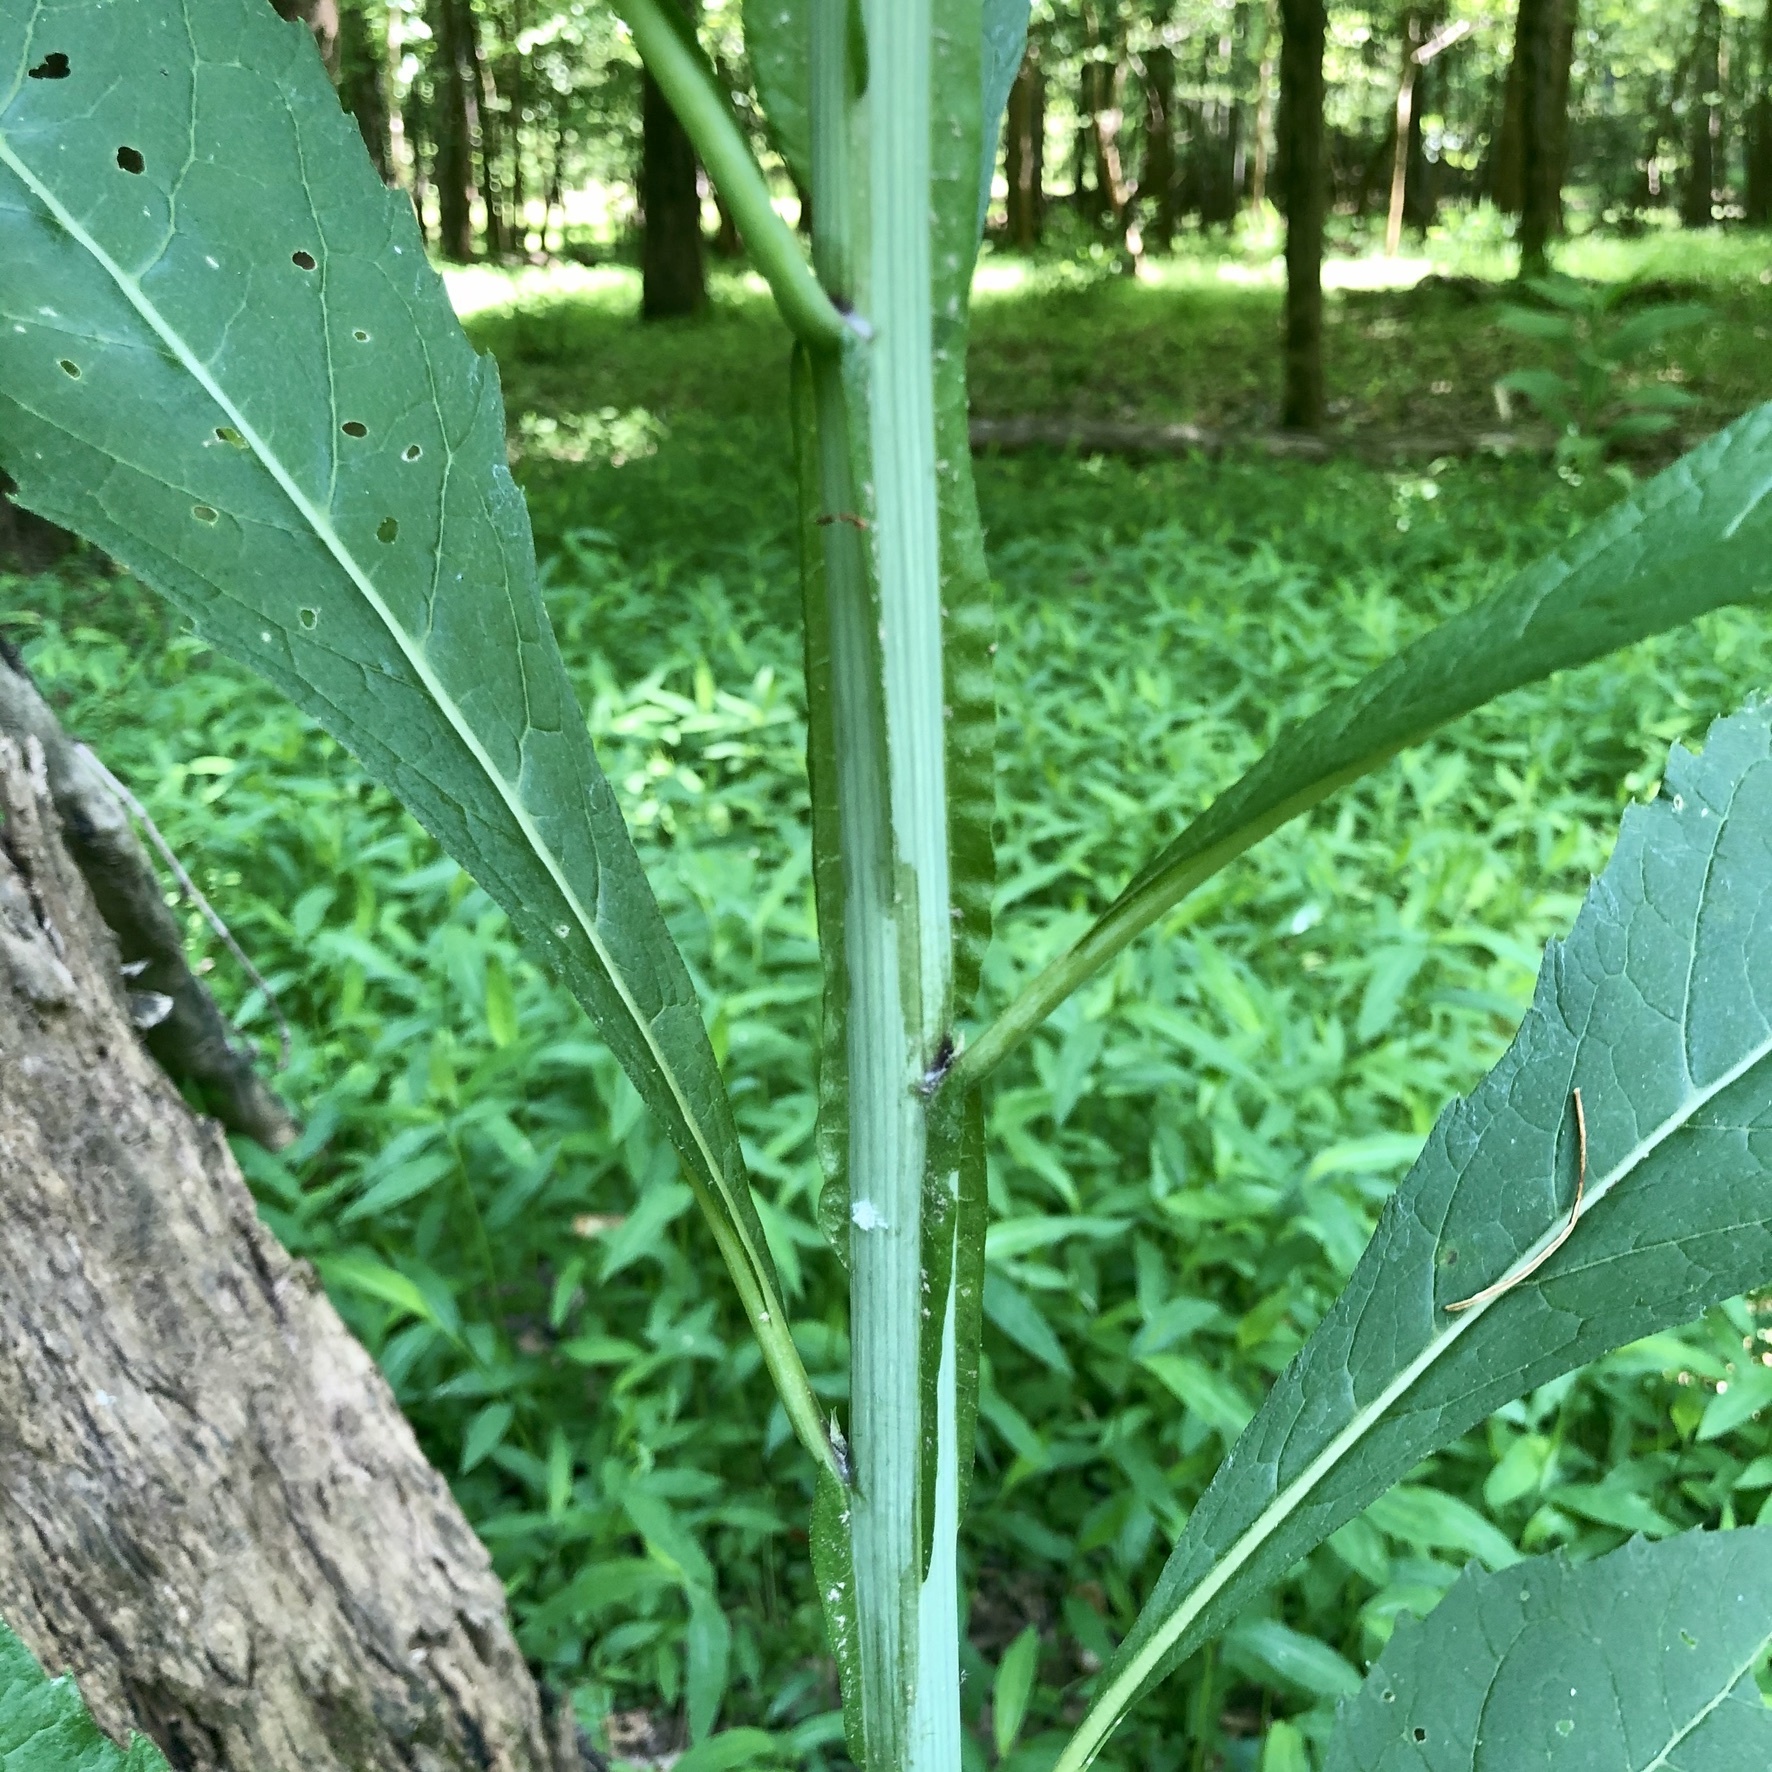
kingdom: Plantae
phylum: Tracheophyta
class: Magnoliopsida
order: Asterales
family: Asteraceae
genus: Eutrochium
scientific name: Eutrochium purpureum
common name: Gravelroot
